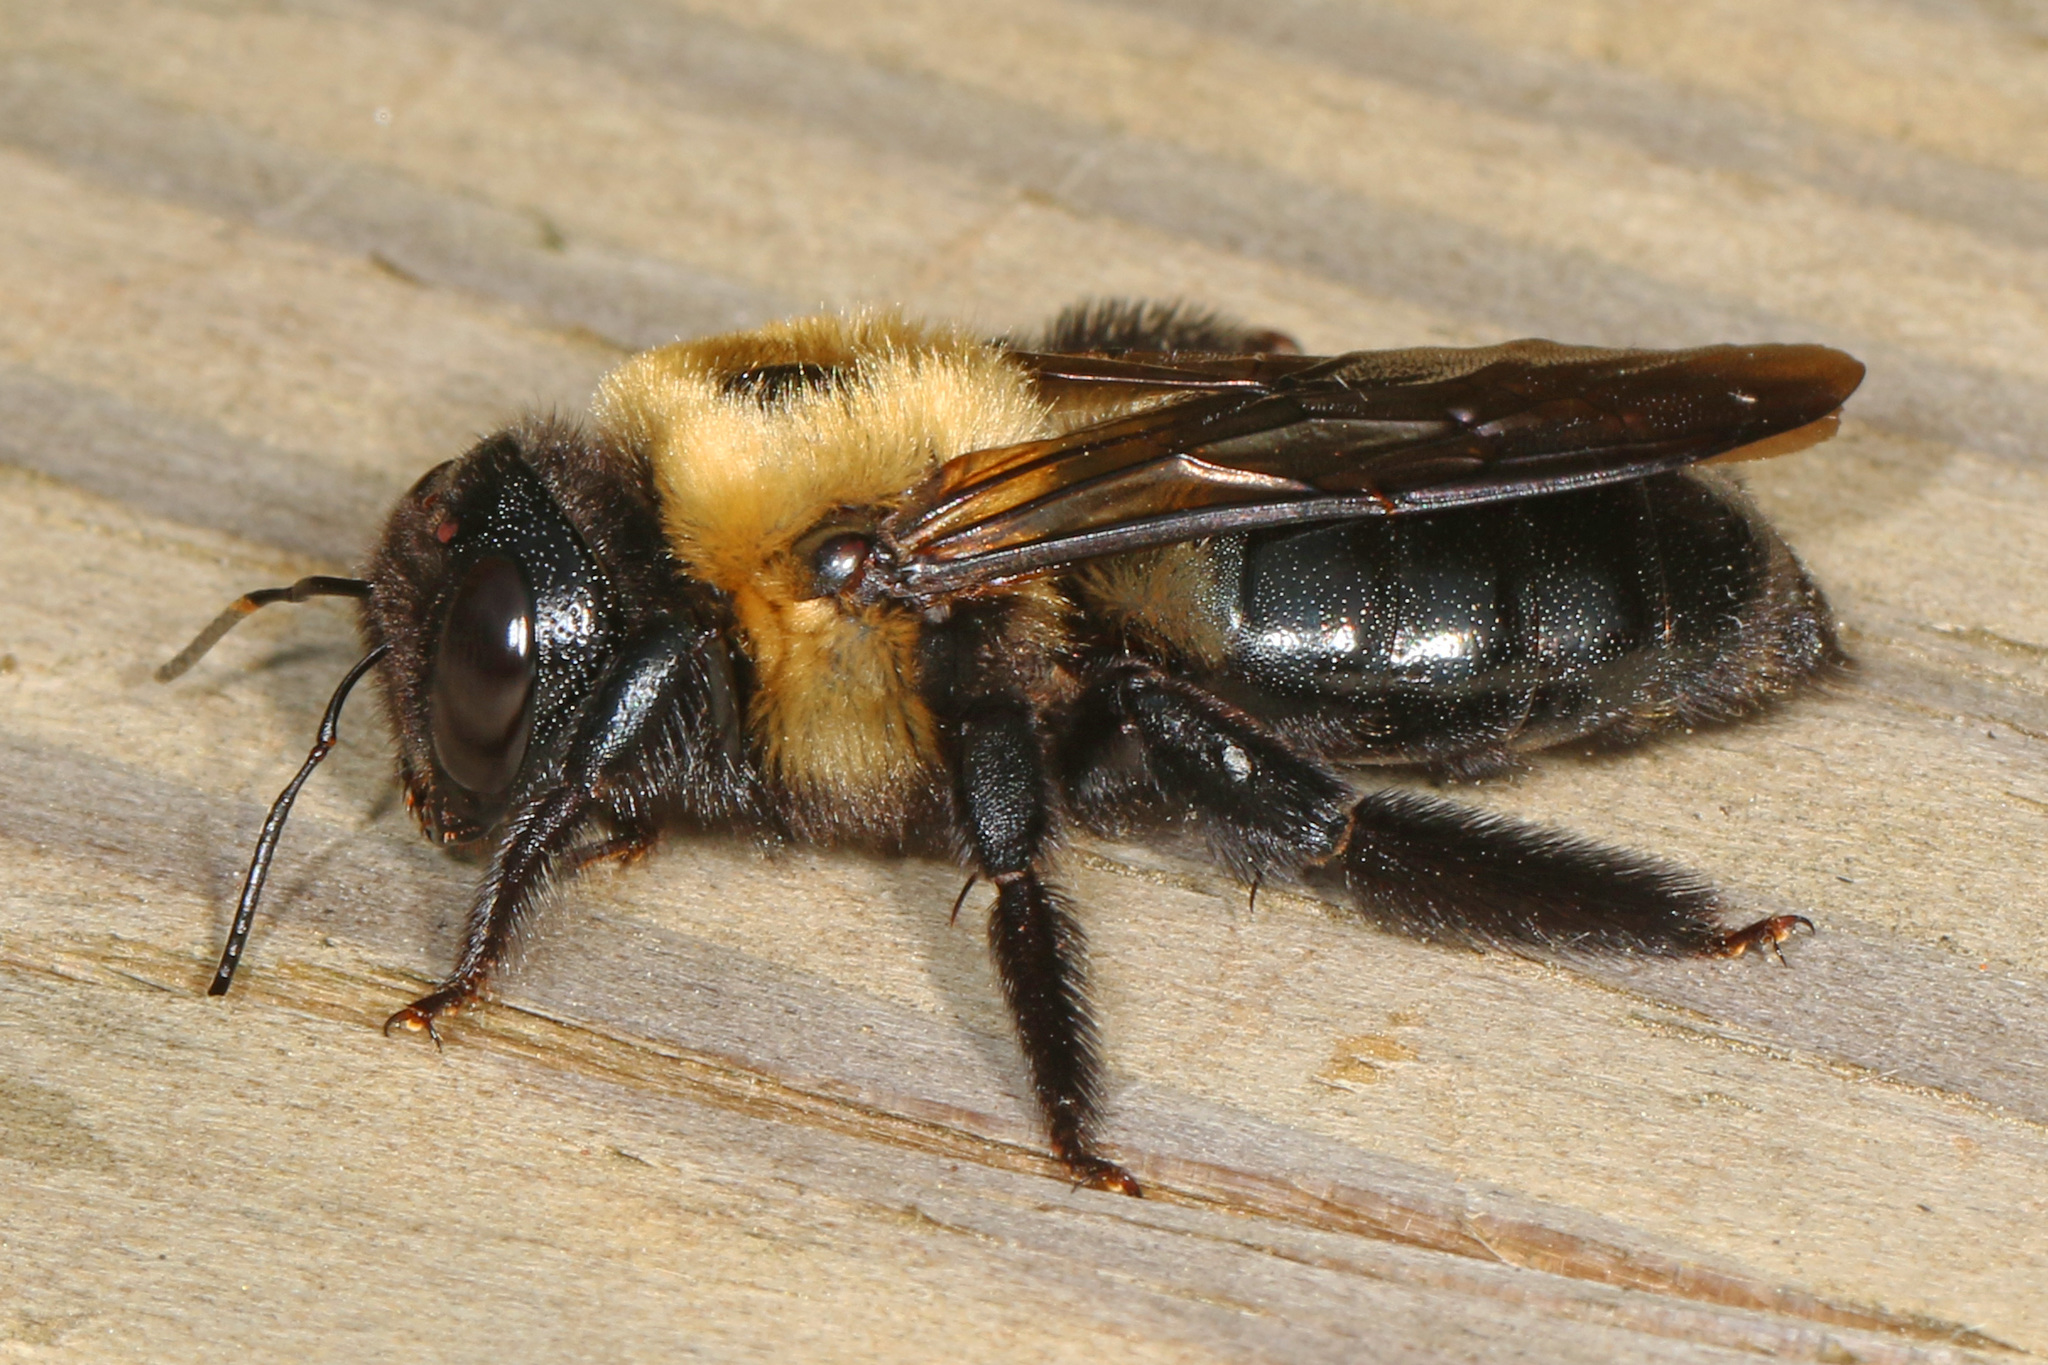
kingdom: Animalia
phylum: Arthropoda
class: Insecta
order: Hymenoptera
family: Apidae
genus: Xylocopa
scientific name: Xylocopa virginica
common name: Carpenter bee
